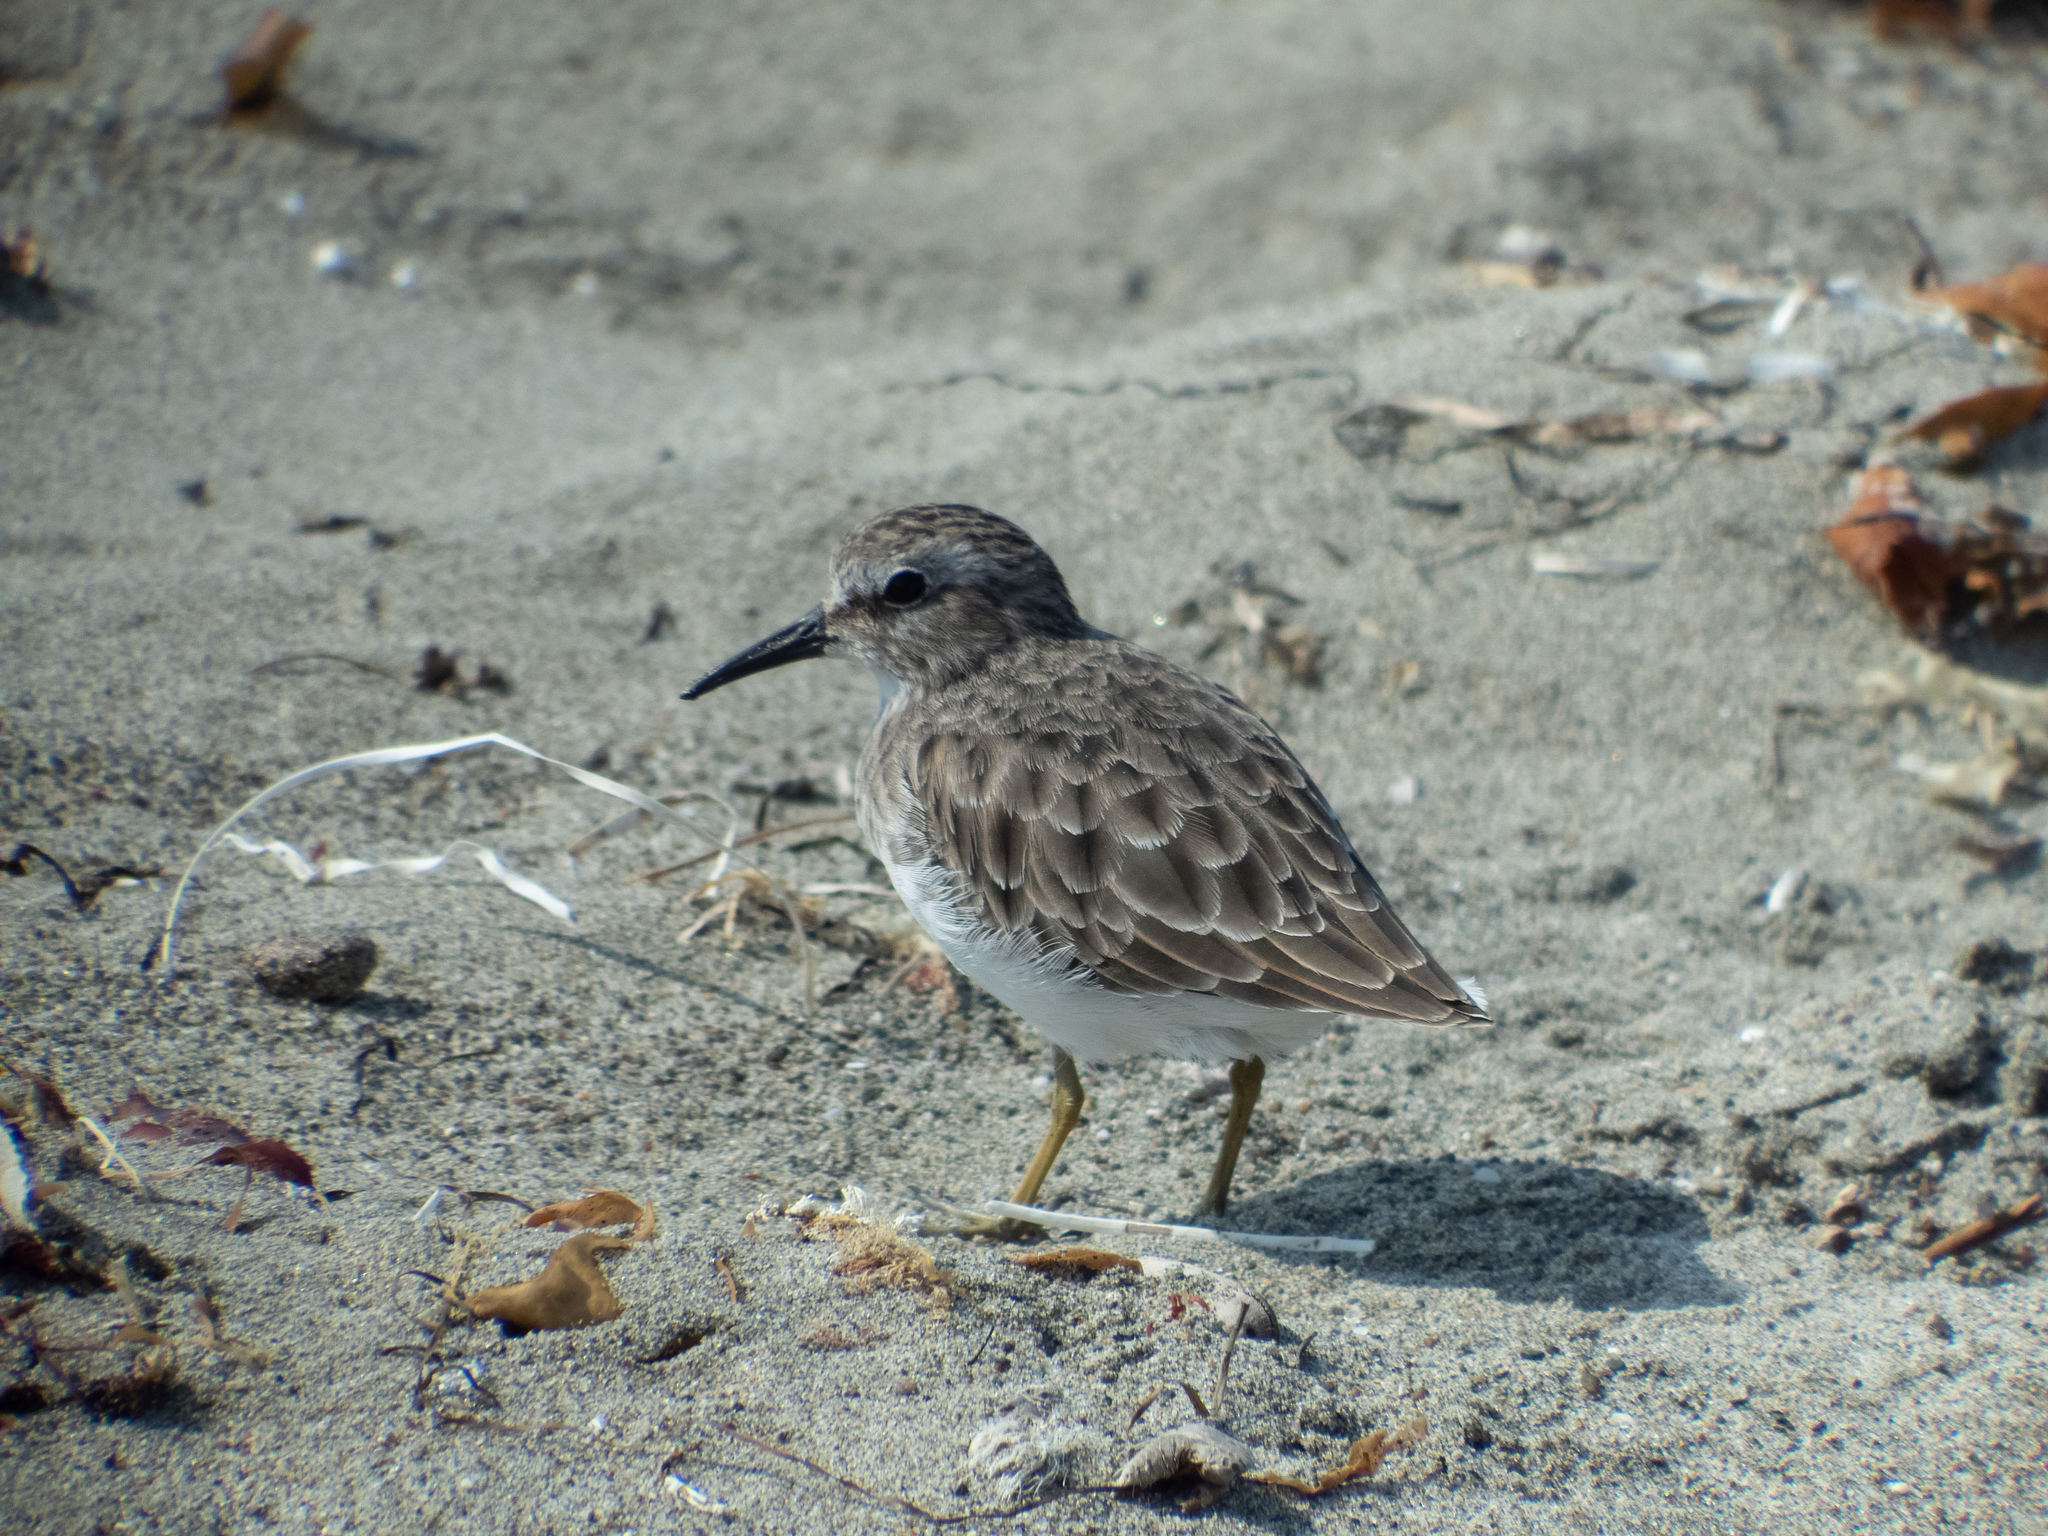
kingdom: Animalia
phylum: Chordata
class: Aves
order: Charadriiformes
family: Scolopacidae
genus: Calidris
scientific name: Calidris minutilla
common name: Least sandpiper
